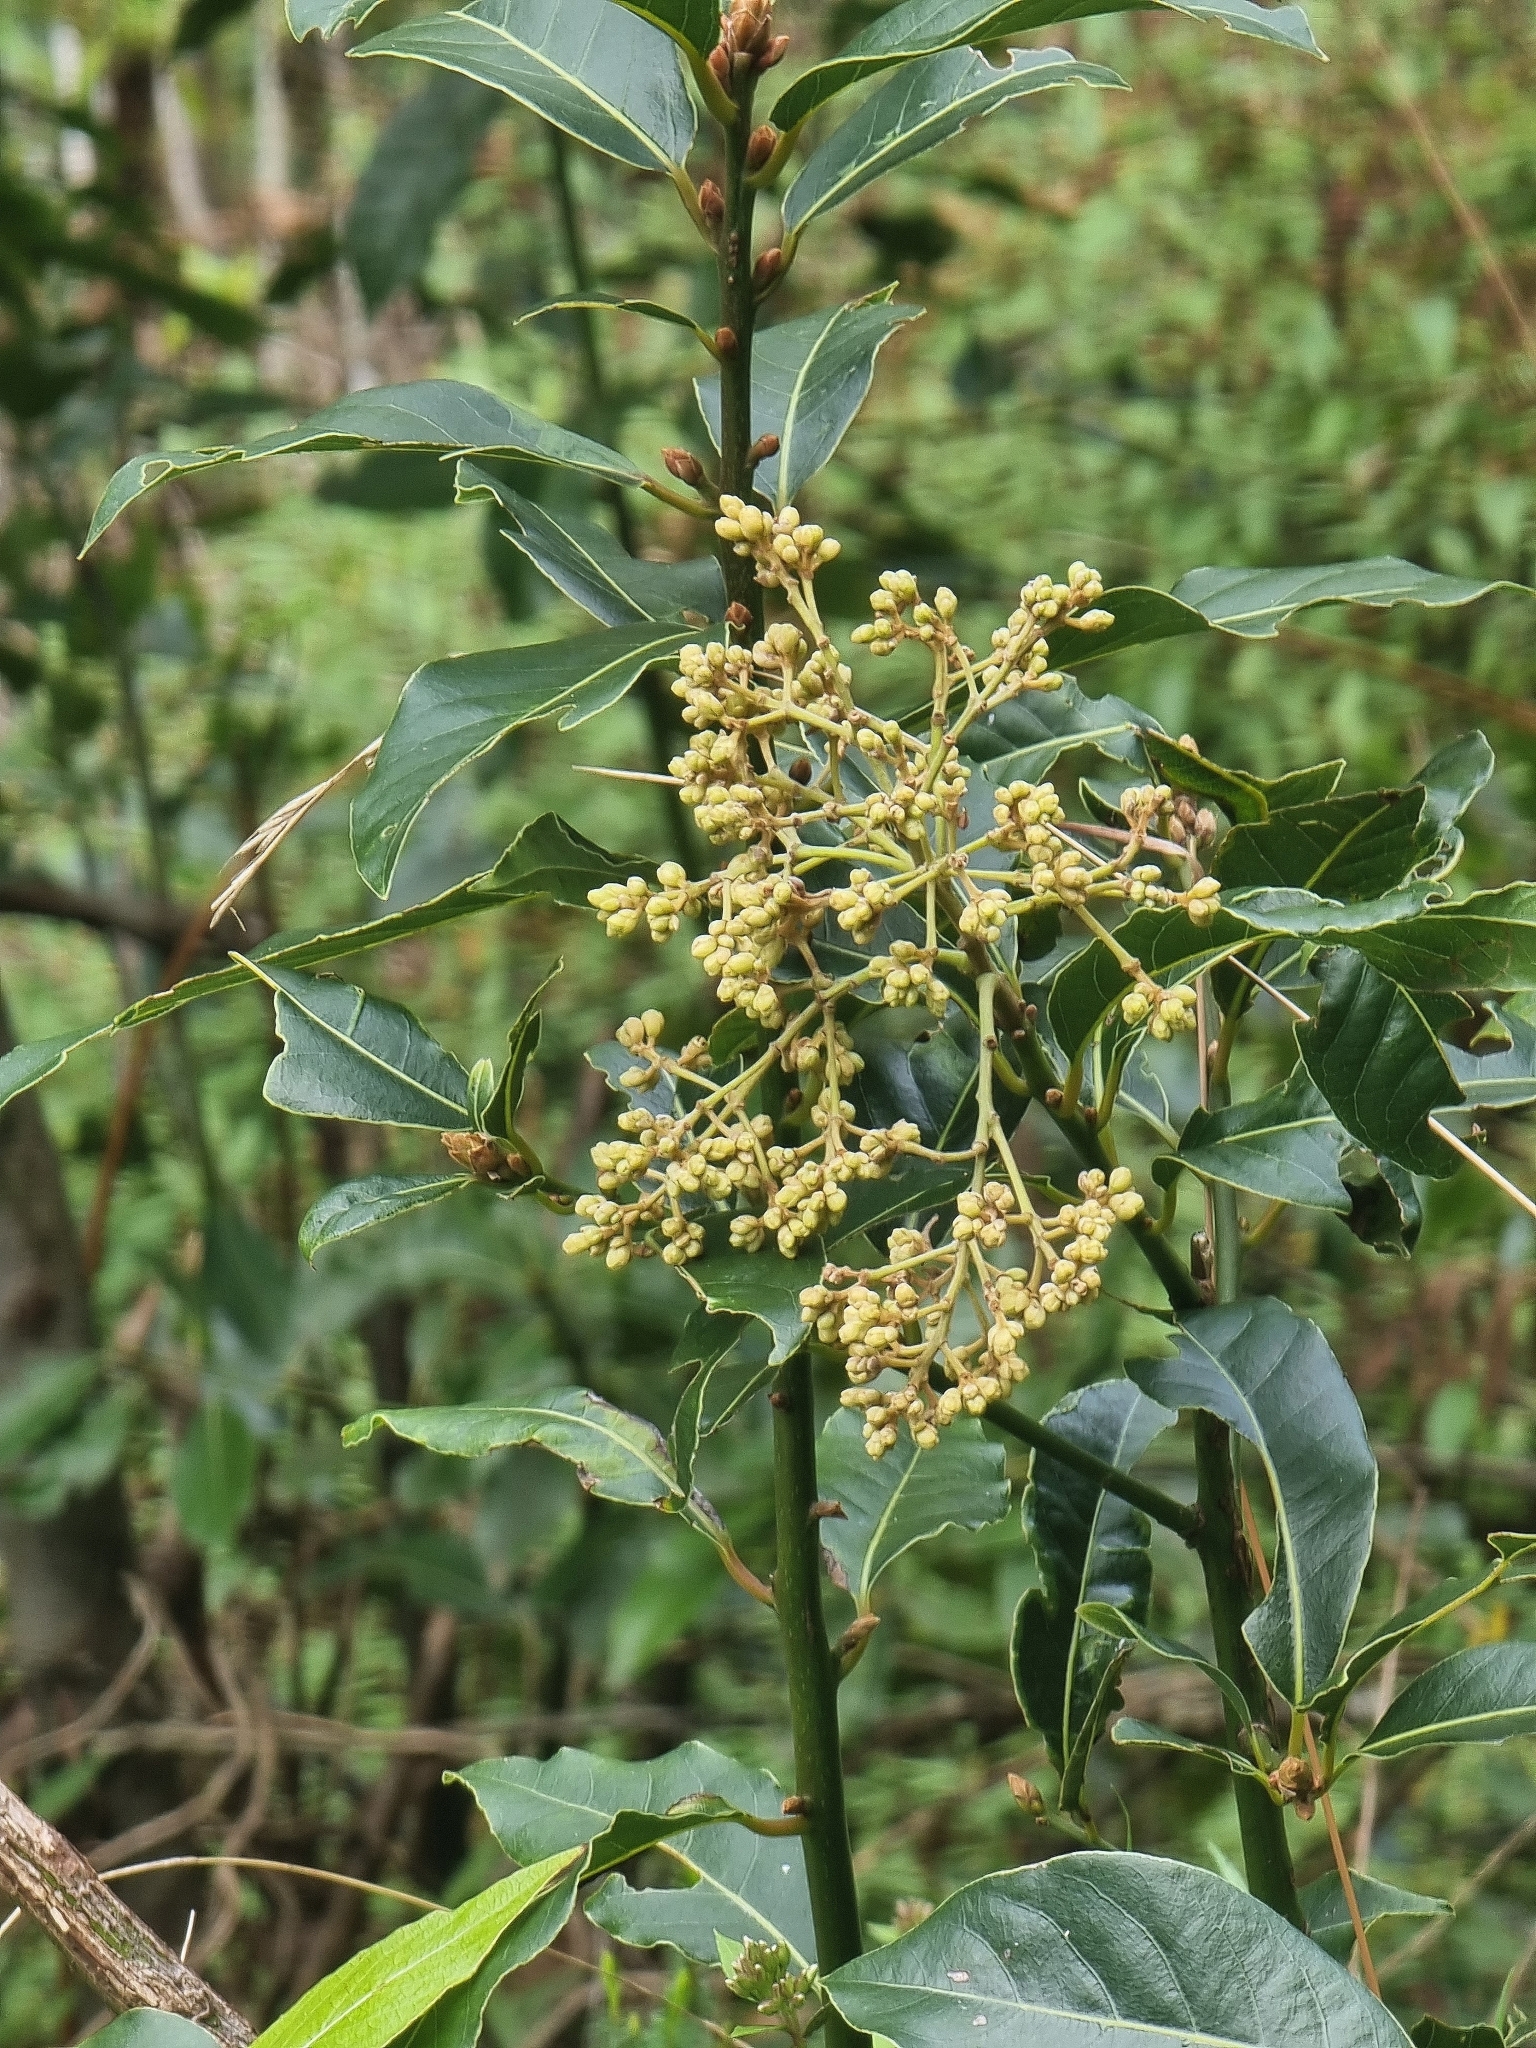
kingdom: Plantae
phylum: Tracheophyta
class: Magnoliopsida
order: Laurales
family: Lauraceae
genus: Laurus
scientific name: Laurus novocanariensis
